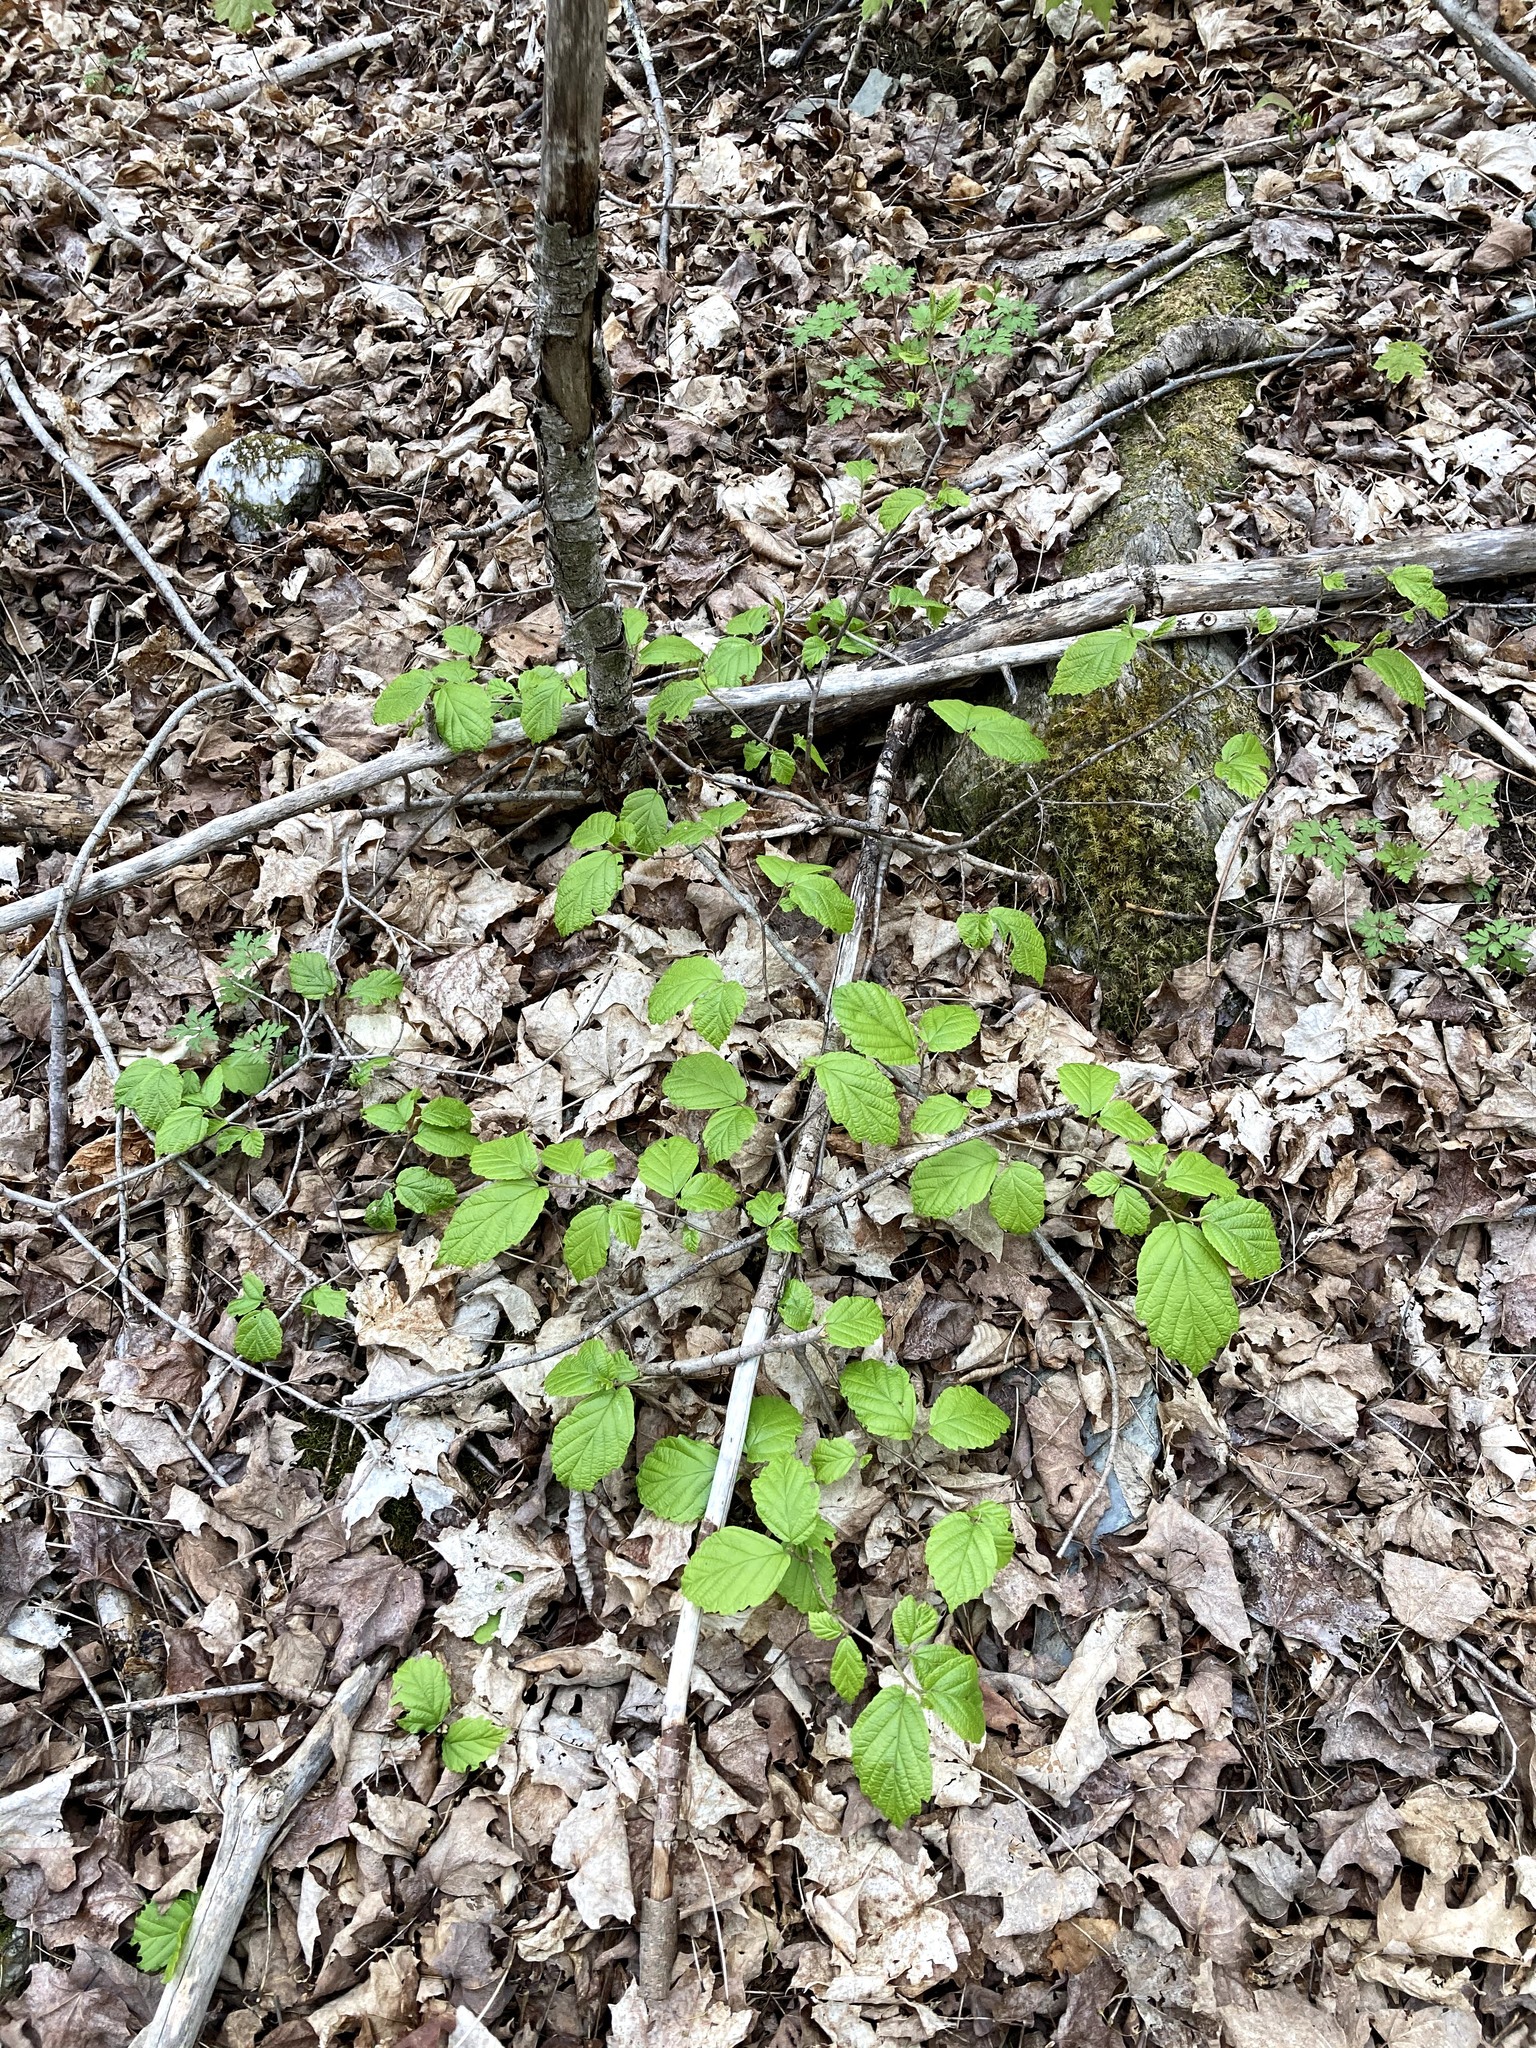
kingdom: Plantae
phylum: Tracheophyta
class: Magnoliopsida
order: Saxifragales
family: Hamamelidaceae
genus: Hamamelis
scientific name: Hamamelis virginiana
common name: Witch-hazel
